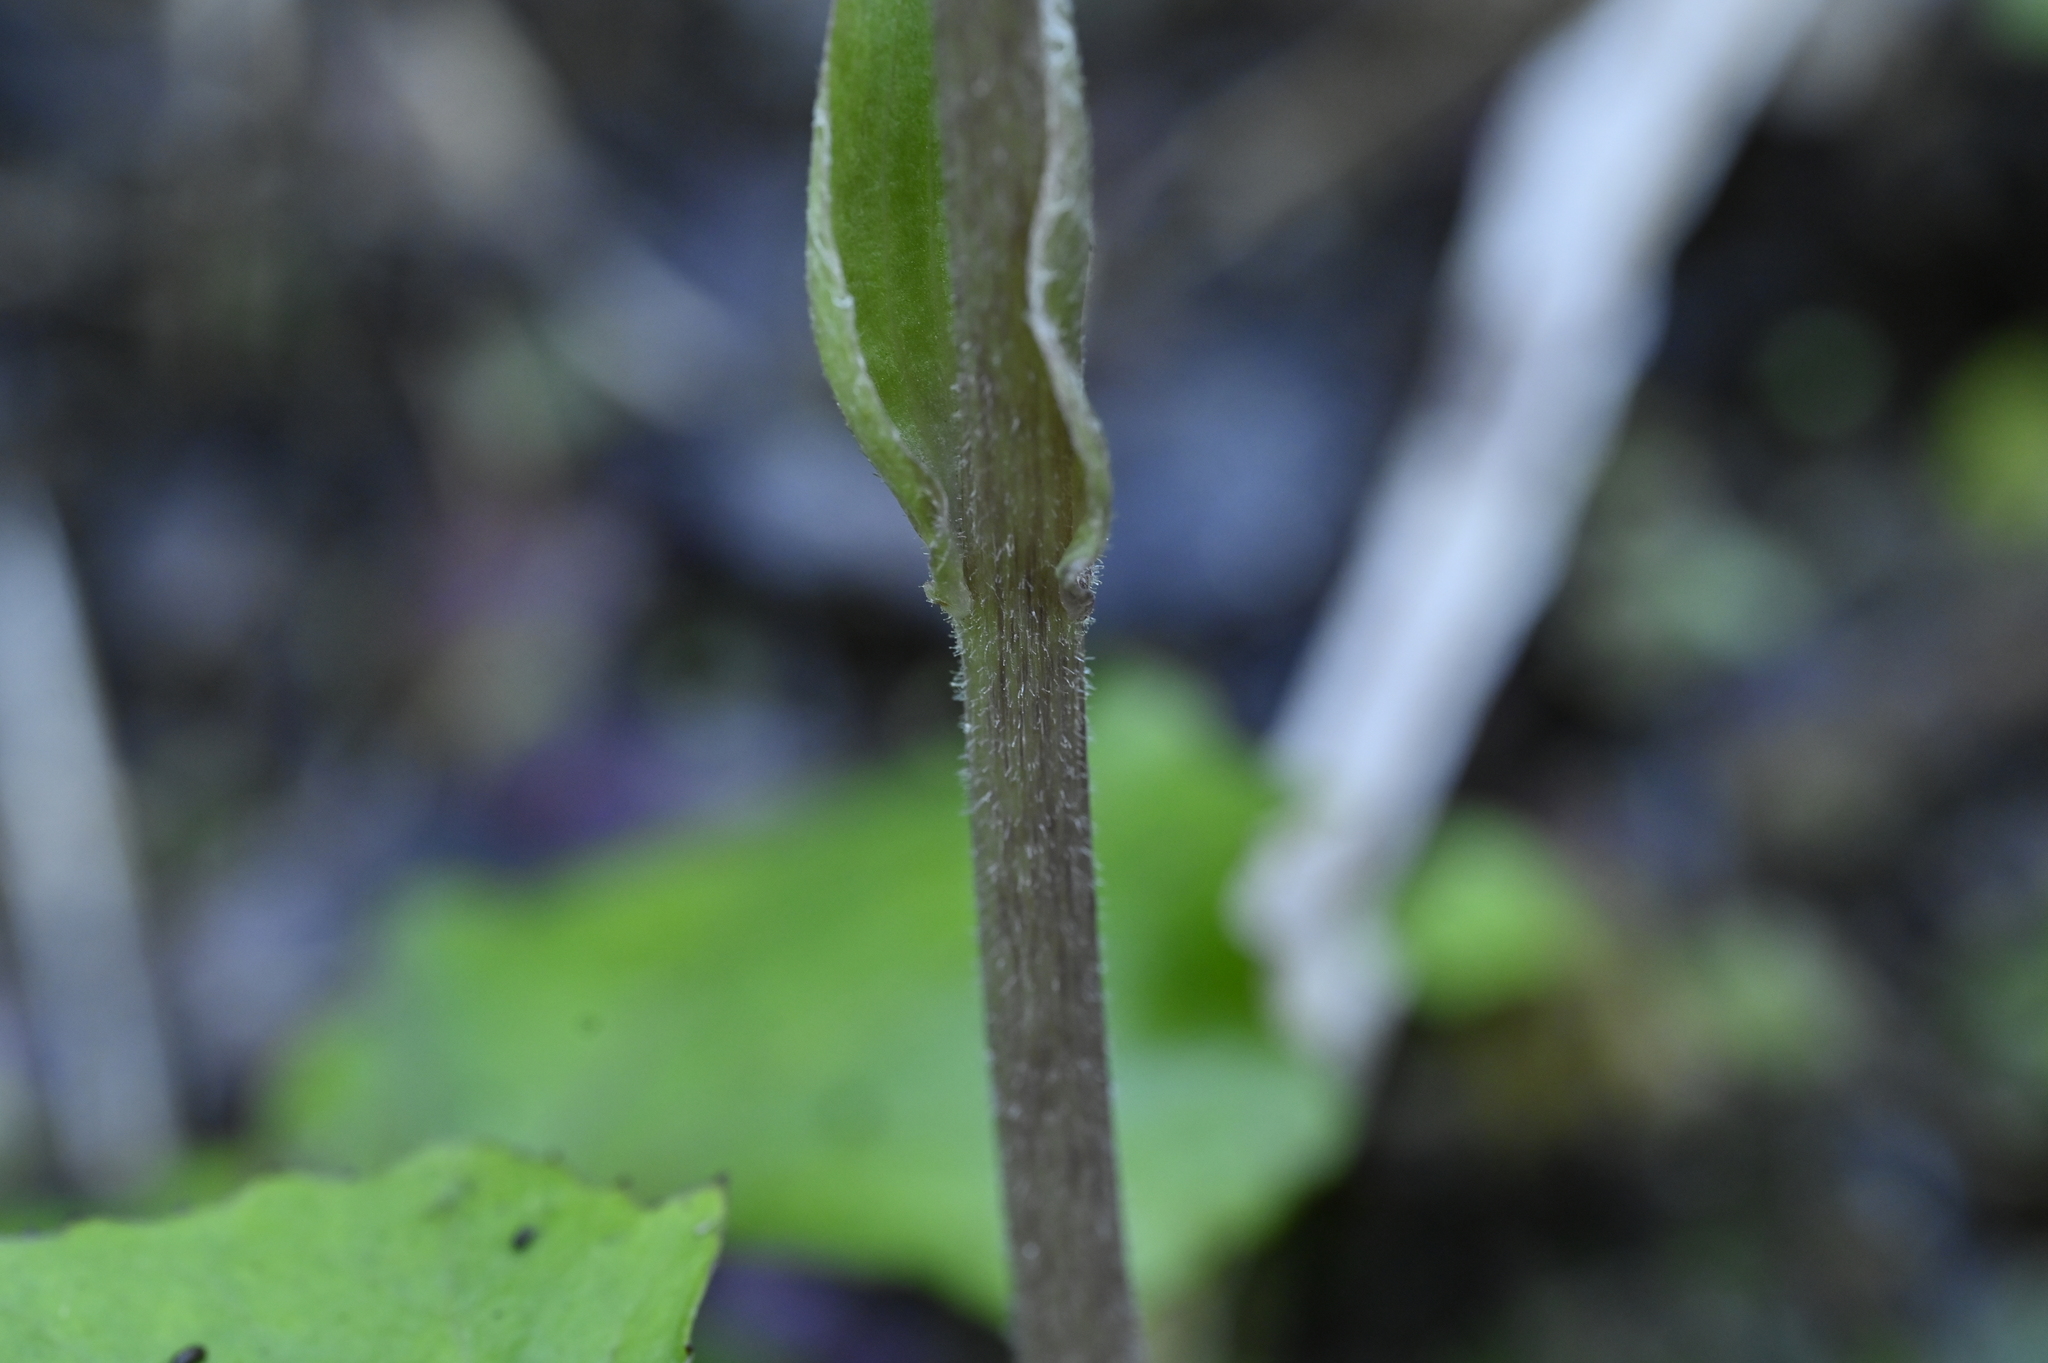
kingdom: Plantae
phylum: Tracheophyta
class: Magnoliopsida
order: Asterales
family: Asteraceae
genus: Petasites
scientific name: Petasites formosanus
